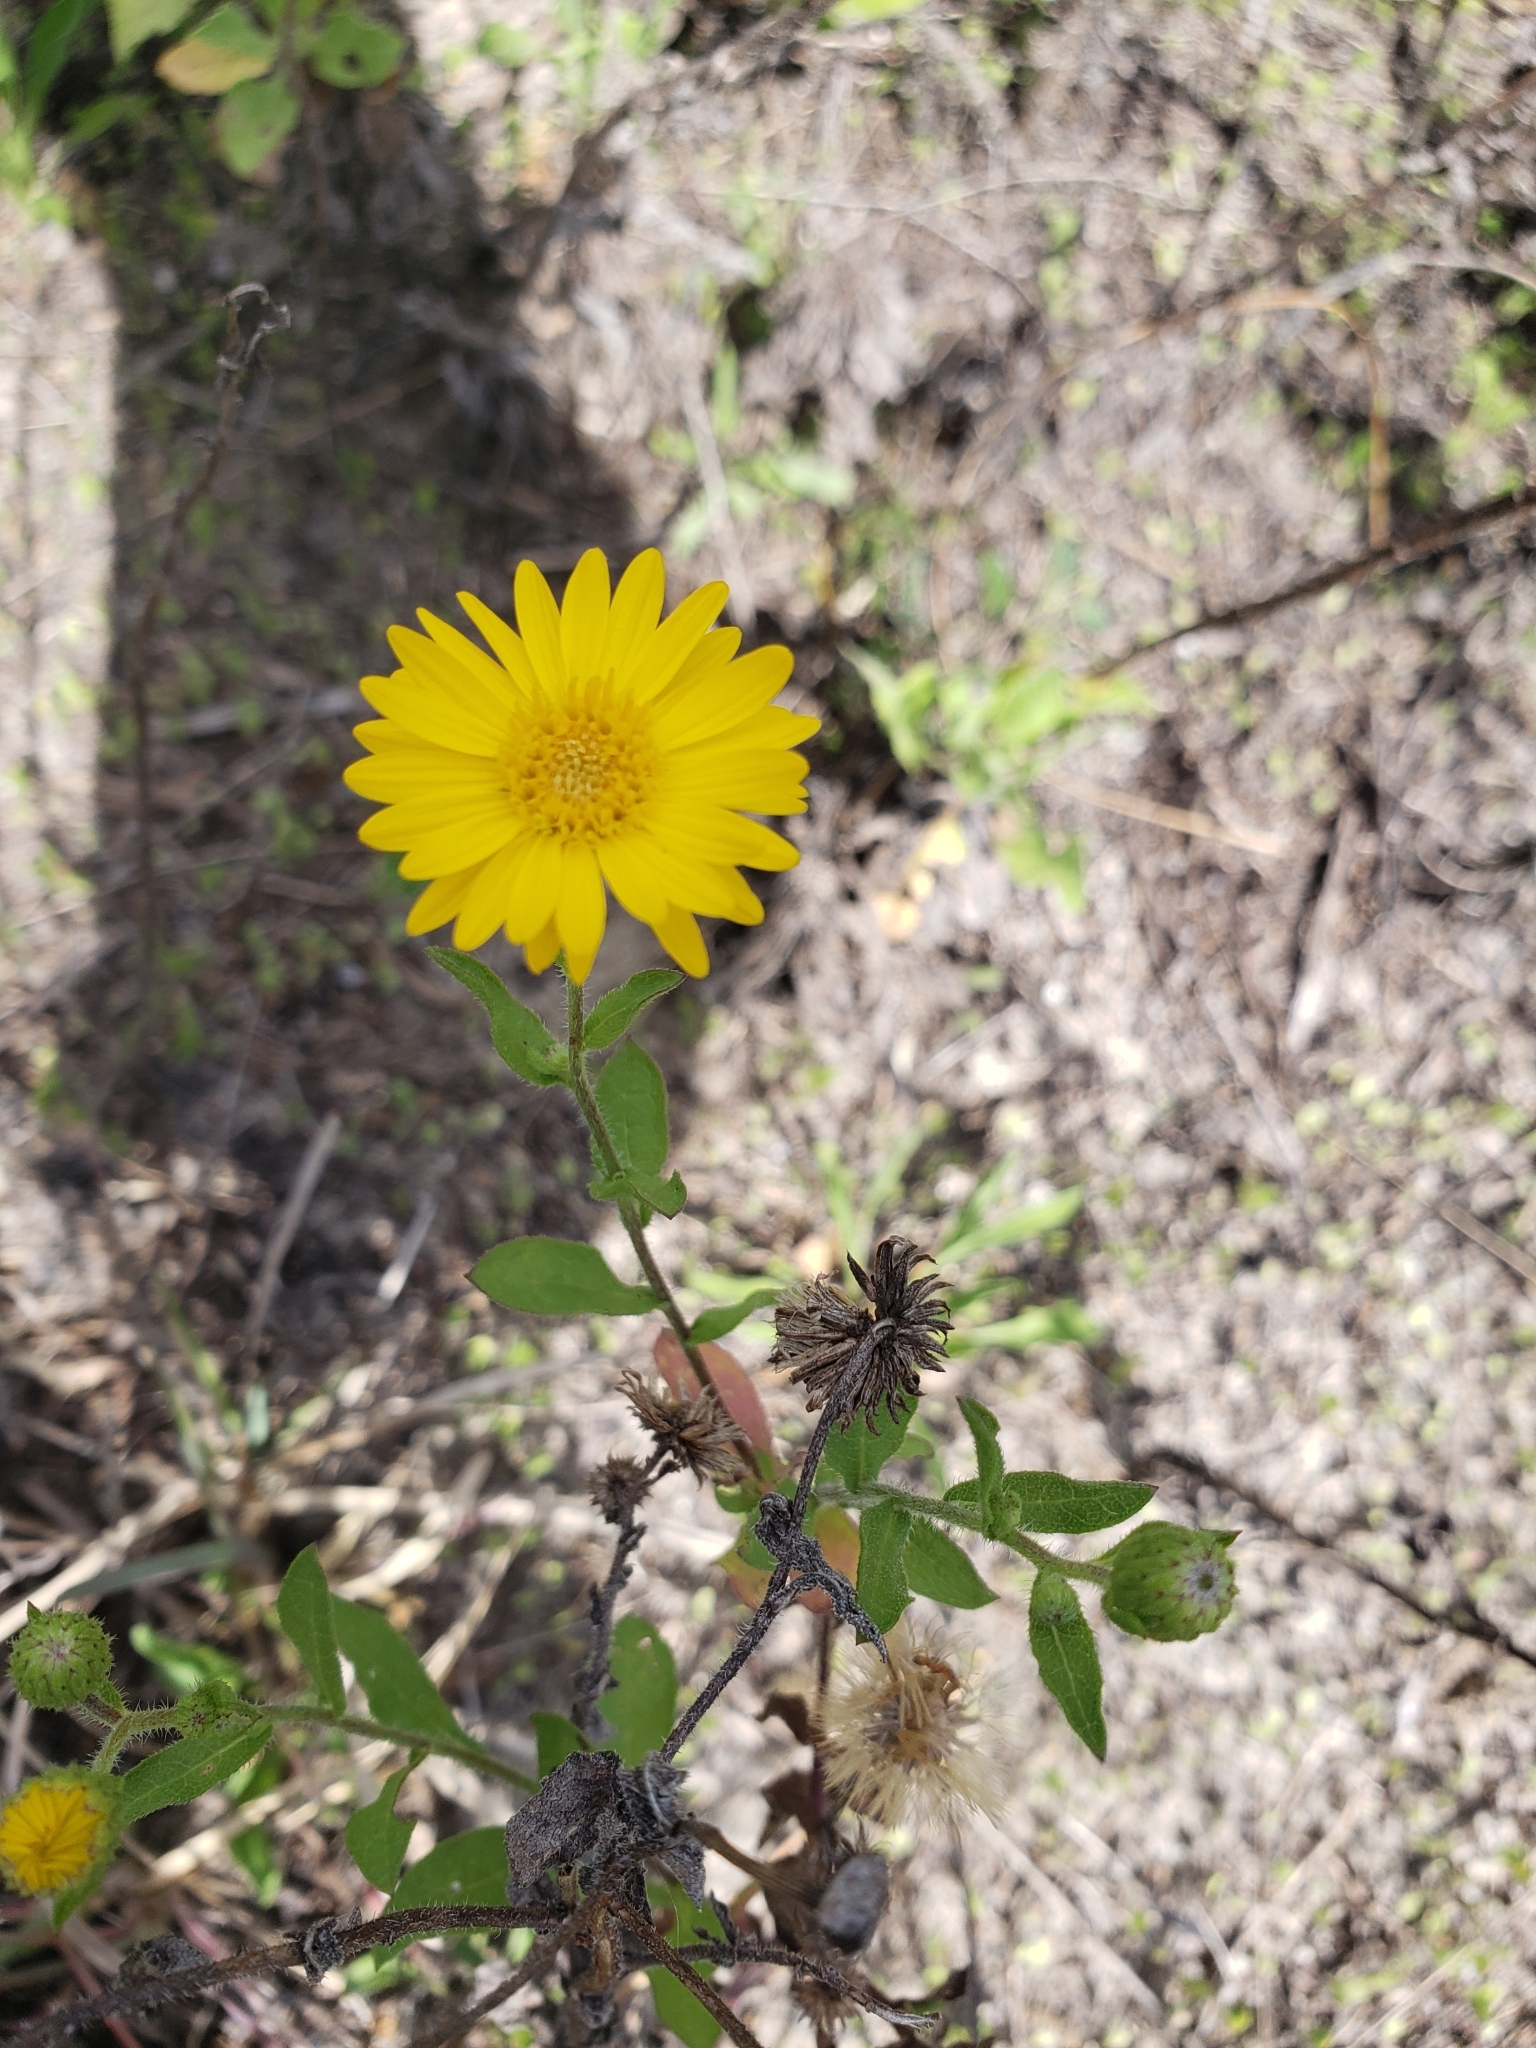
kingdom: Plantae
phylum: Tracheophyta
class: Magnoliopsida
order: Asterales
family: Asteraceae
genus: Heterotheca
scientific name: Heterotheca subaxillaris
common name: Camphorweed
